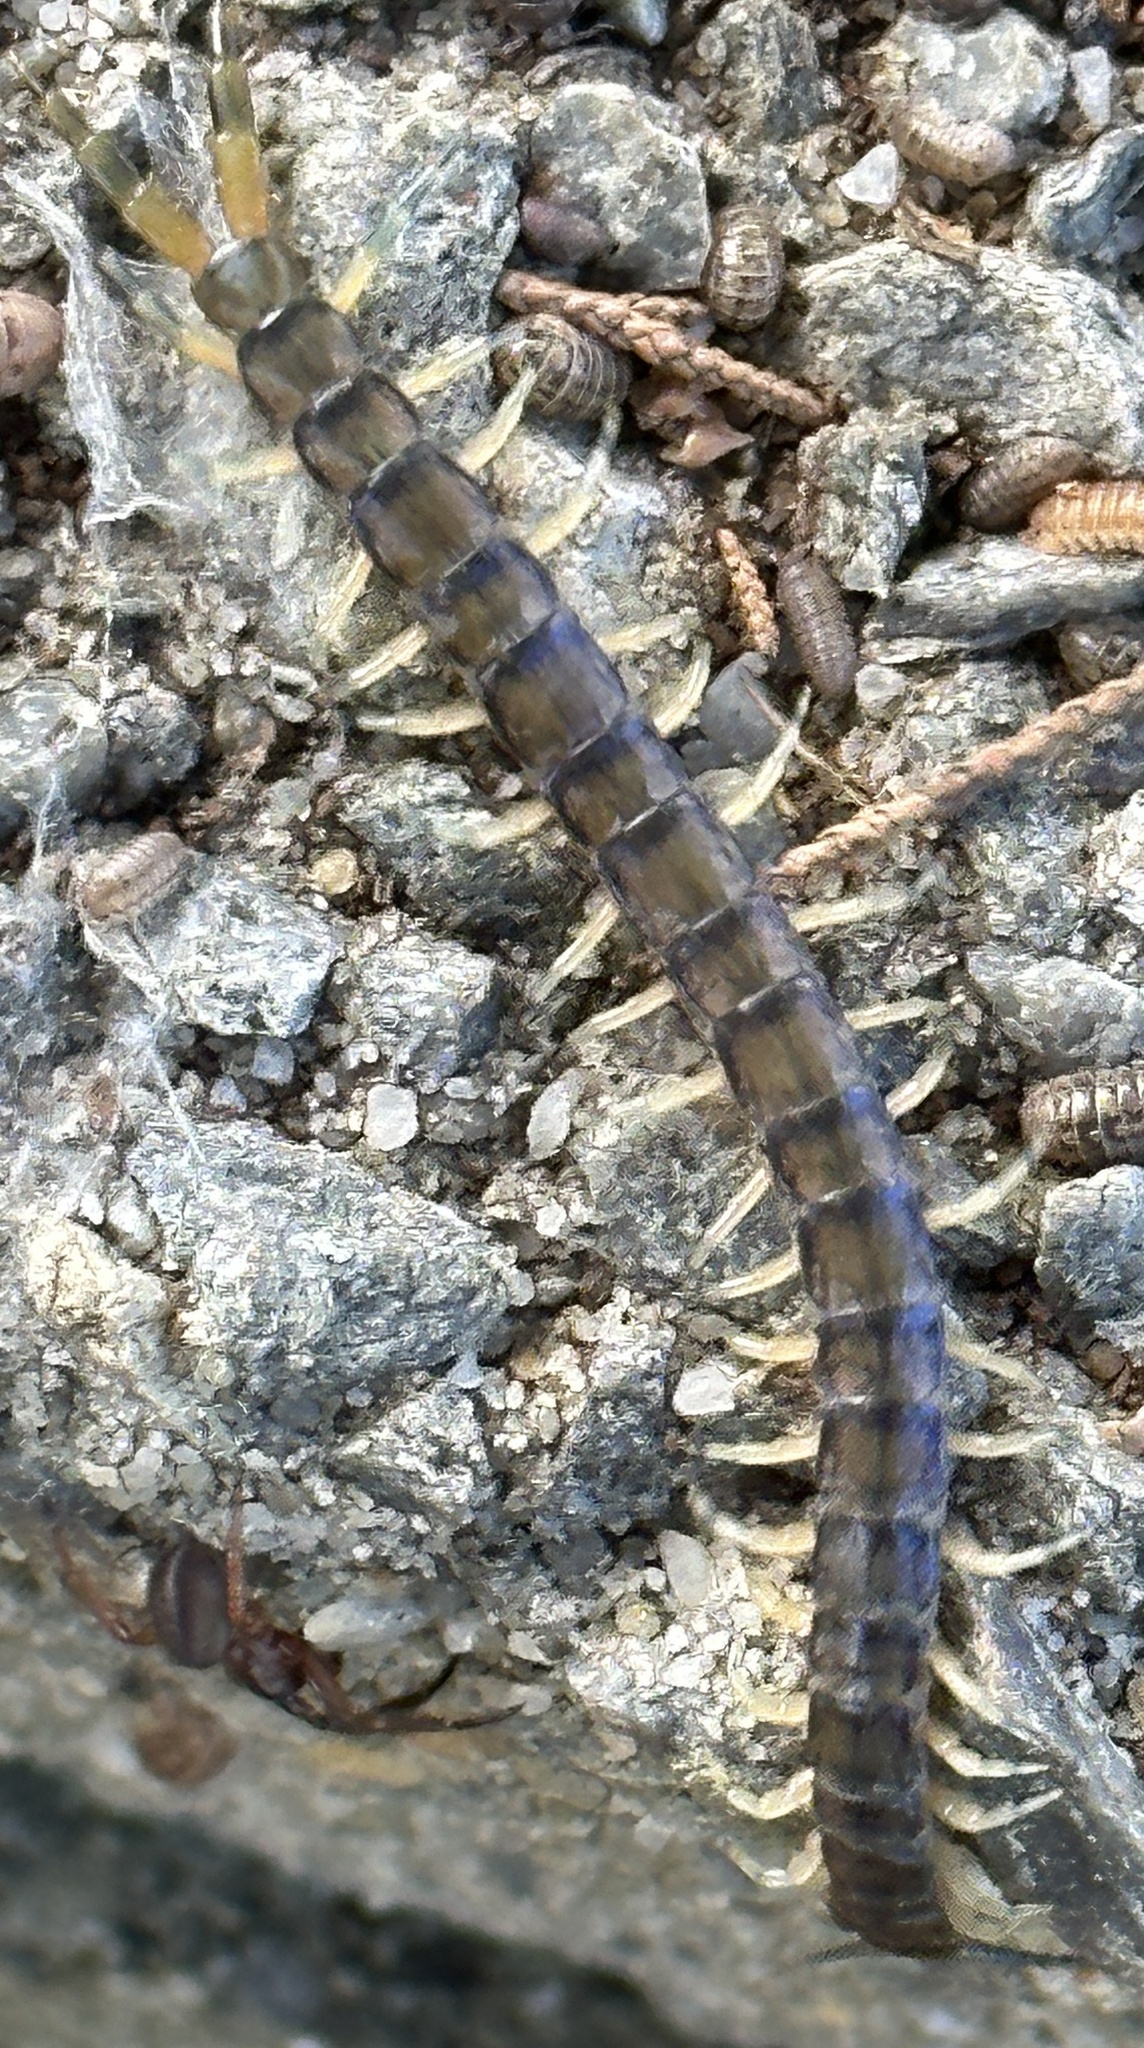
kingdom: Animalia
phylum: Arthropoda
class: Chilopoda
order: Scolopendromorpha
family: Scolopendridae
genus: Hemiscolopendra
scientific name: Hemiscolopendra marginata
